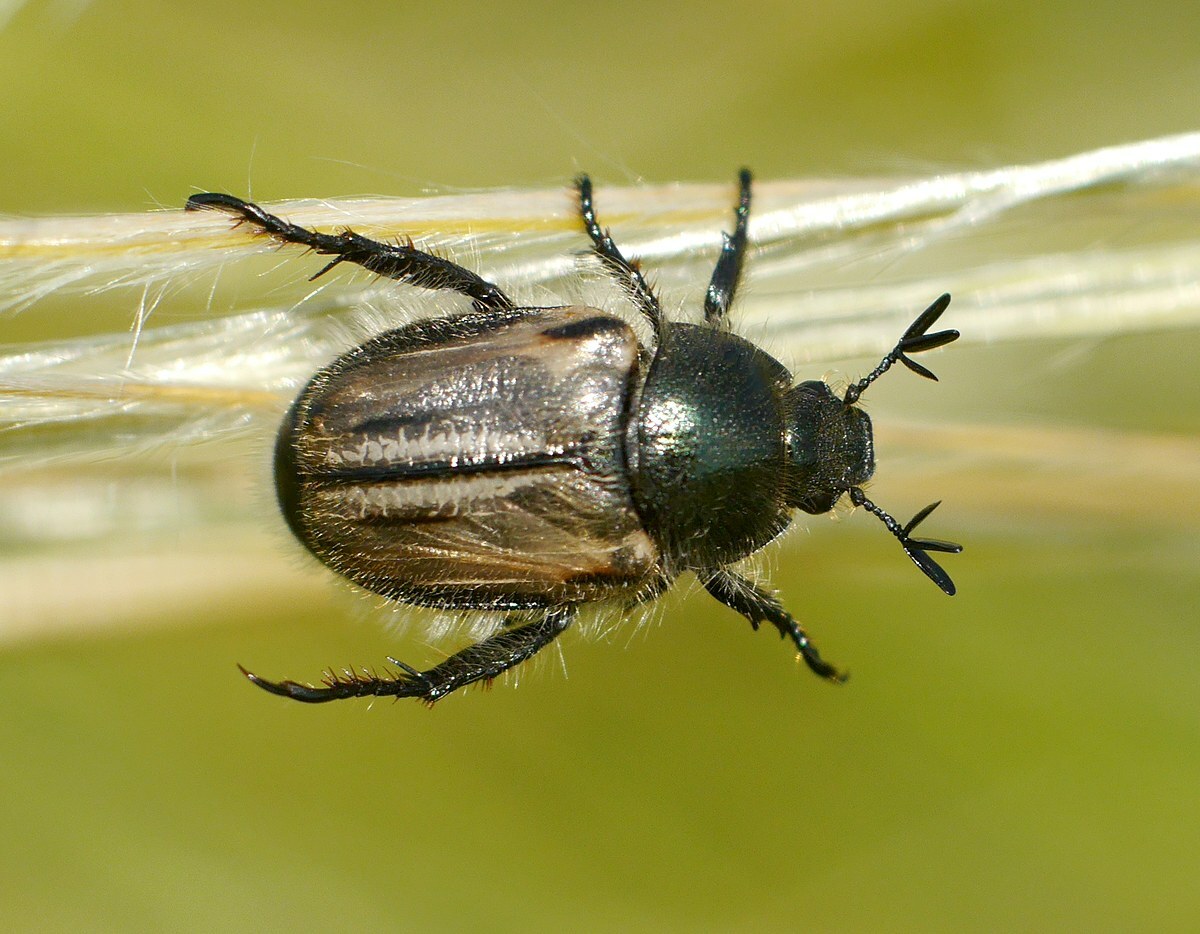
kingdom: Animalia
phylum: Arthropoda
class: Insecta
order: Coleoptera
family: Scarabaeidae
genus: Blitopertha
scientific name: Blitopertha lineolata
